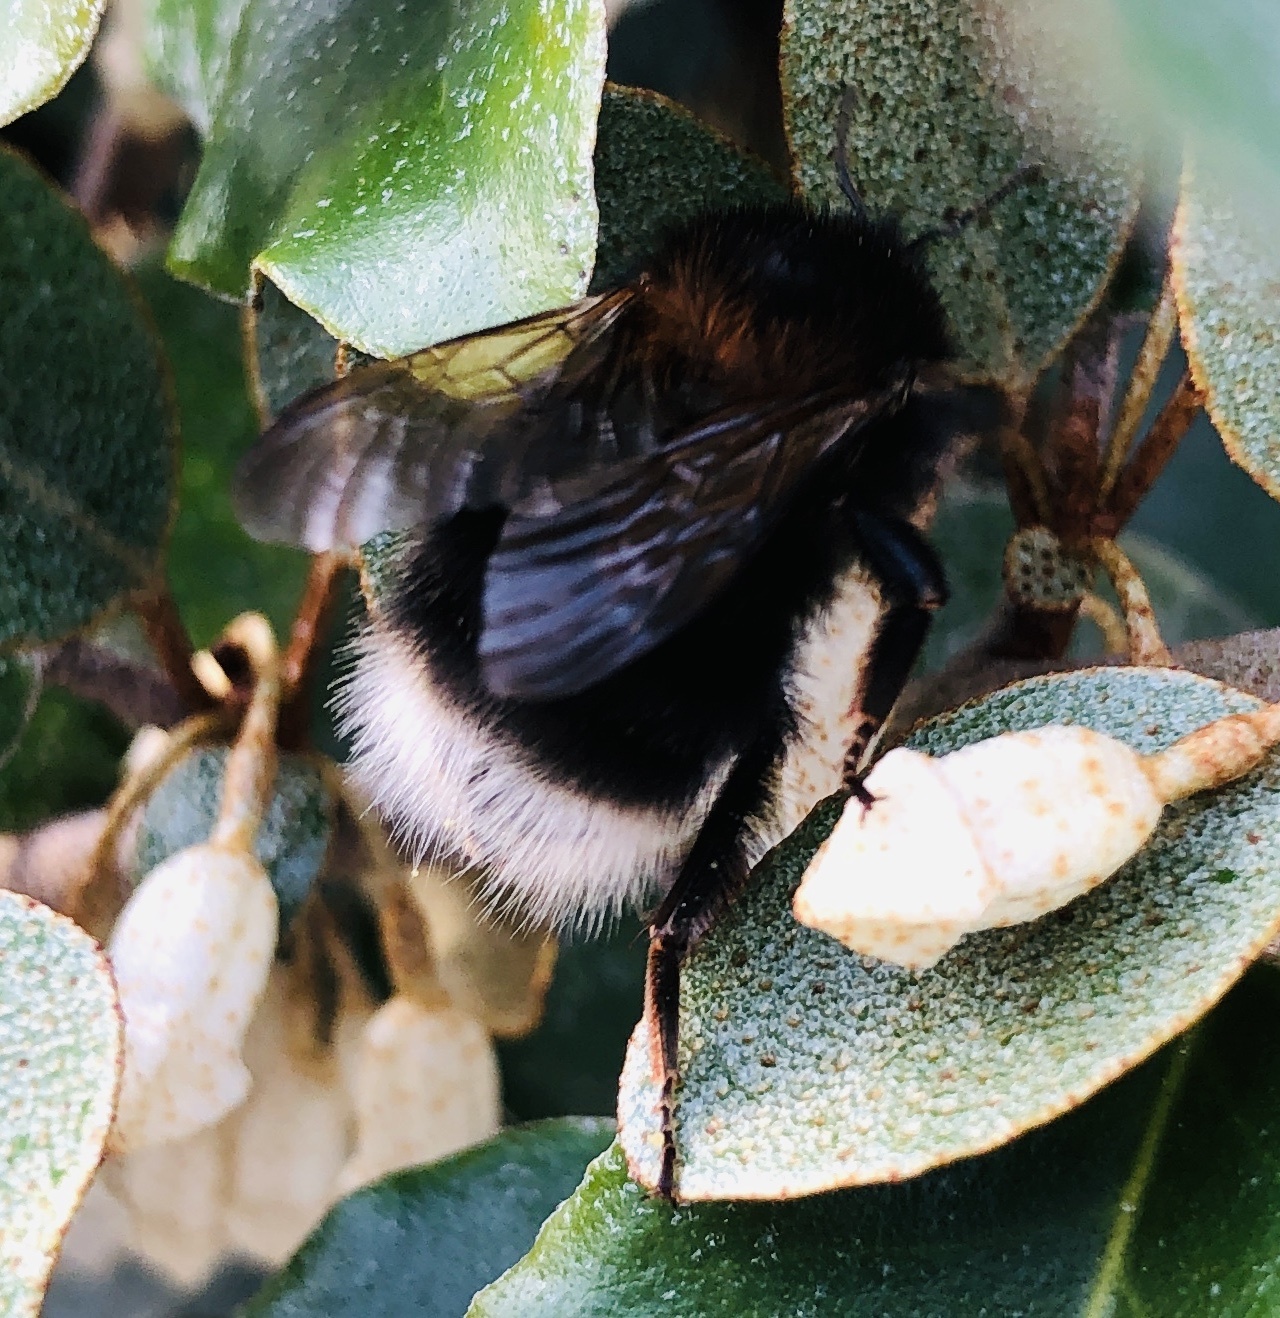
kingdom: Animalia
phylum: Arthropoda
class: Insecta
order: Hymenoptera
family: Apidae
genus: Bombus
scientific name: Bombus hypnorum
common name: New garden bumblebee
